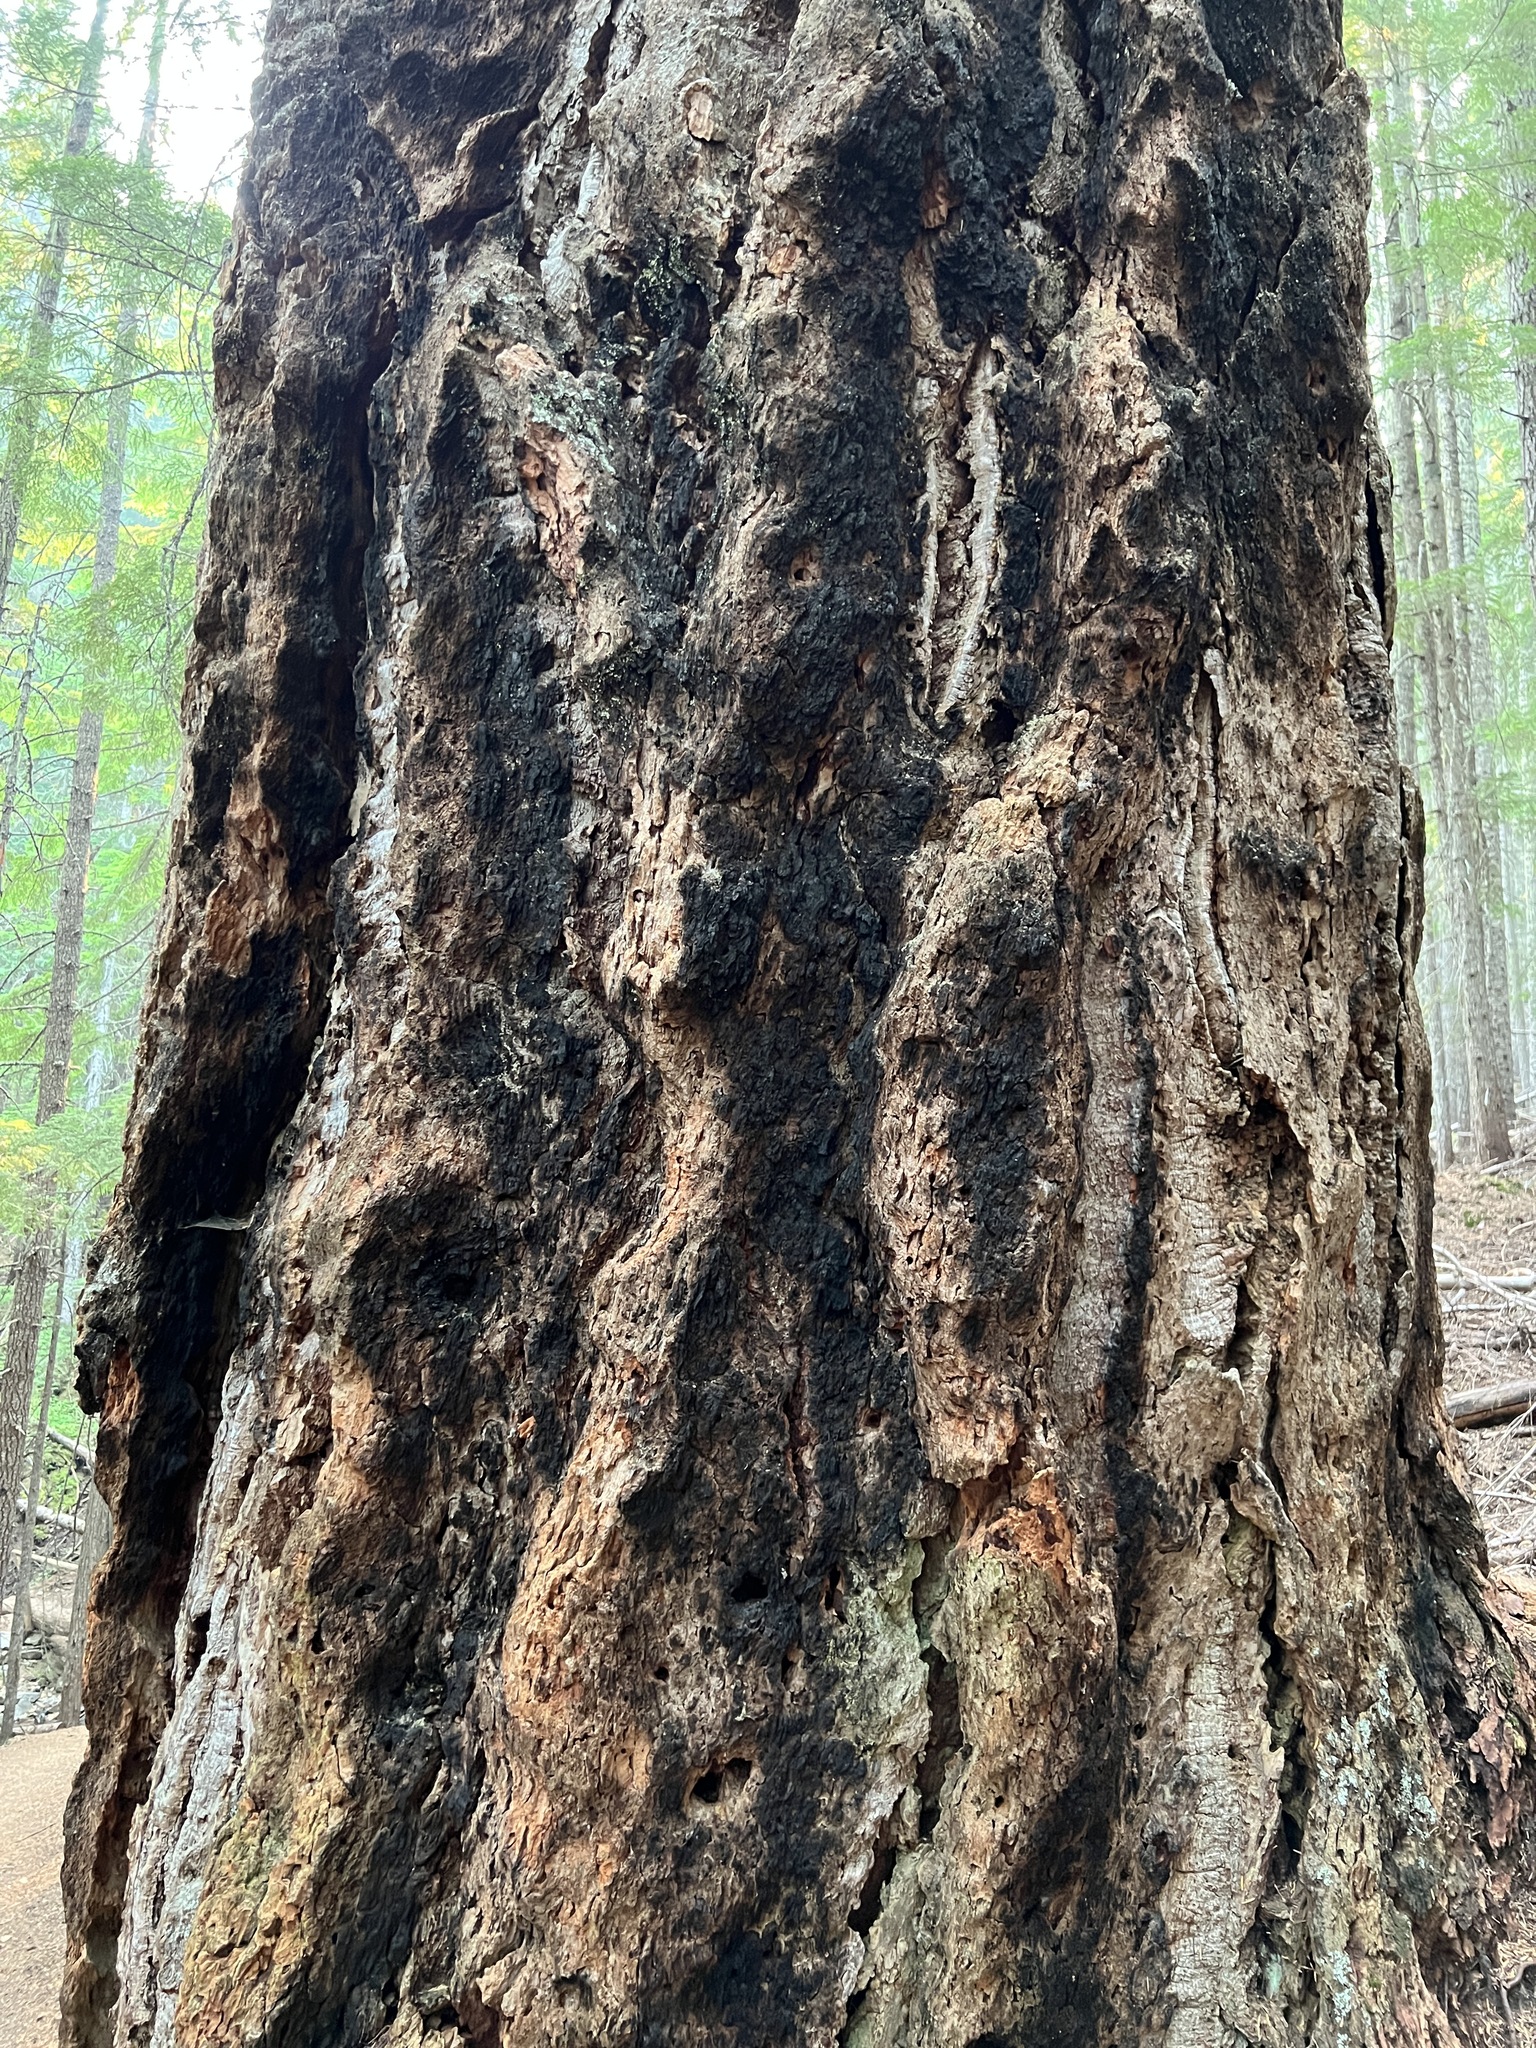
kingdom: Plantae
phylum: Tracheophyta
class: Pinopsida
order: Pinales
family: Pinaceae
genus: Pseudotsuga
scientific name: Pseudotsuga menziesii
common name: Douglas fir
